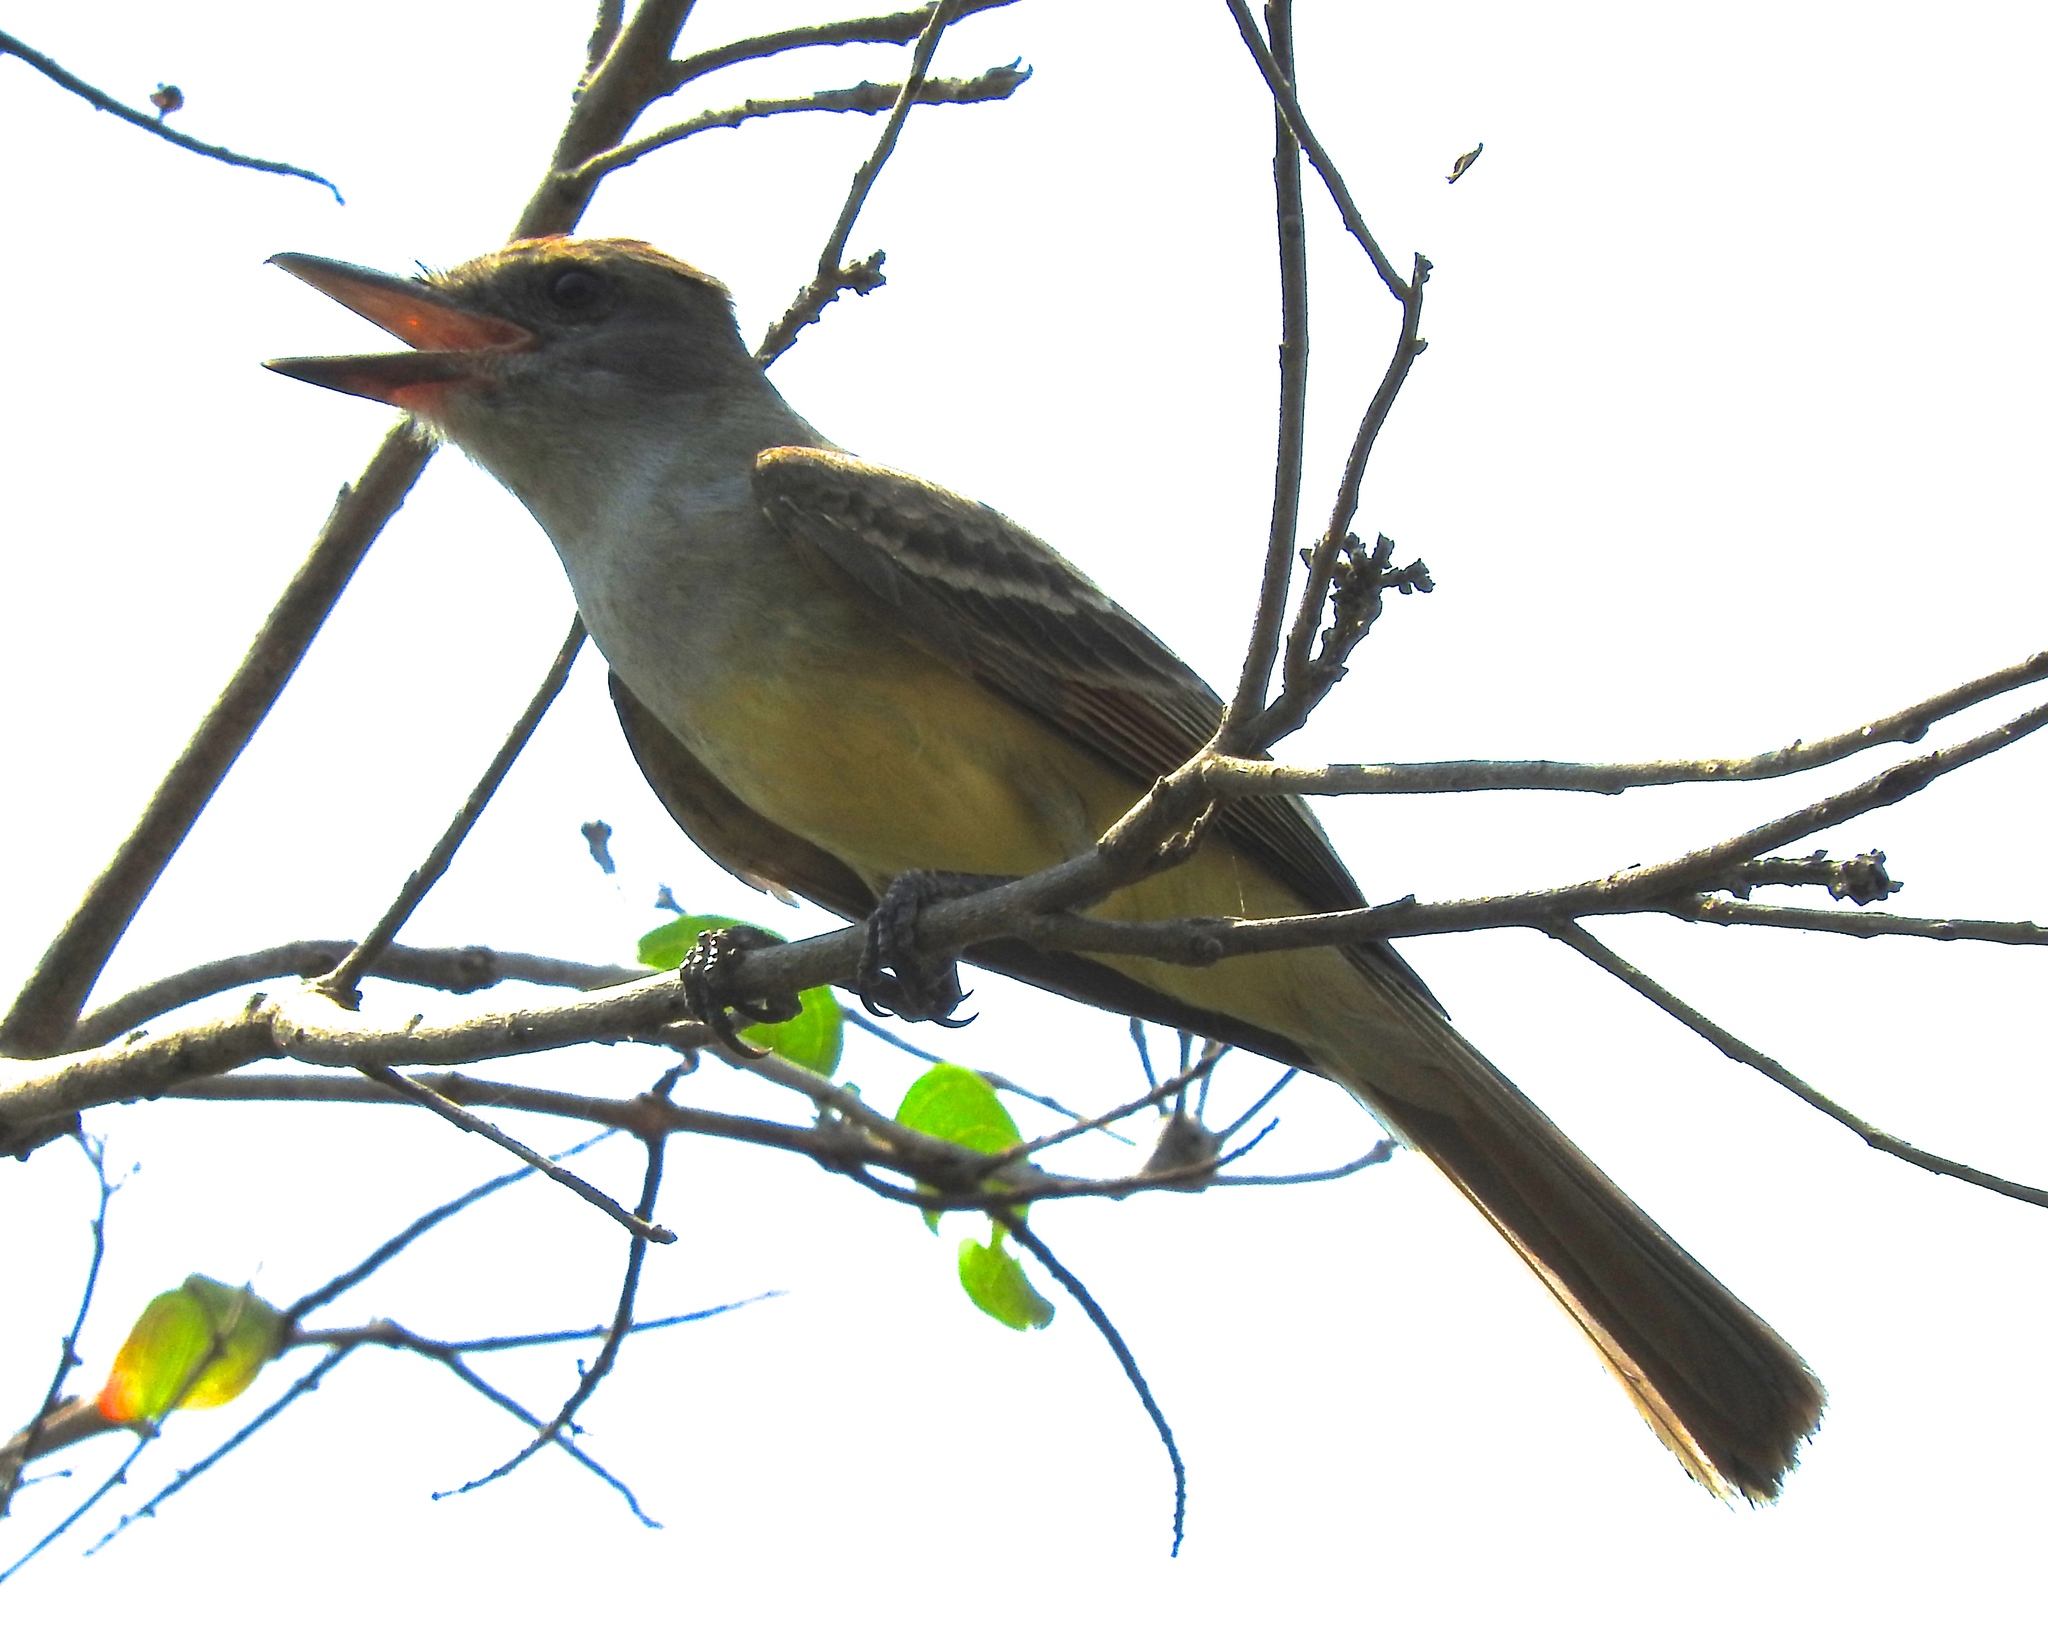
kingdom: Animalia
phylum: Chordata
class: Aves
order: Passeriformes
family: Tyrannidae
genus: Myiarchus
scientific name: Myiarchus cinerascens
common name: Ash-throated flycatcher
